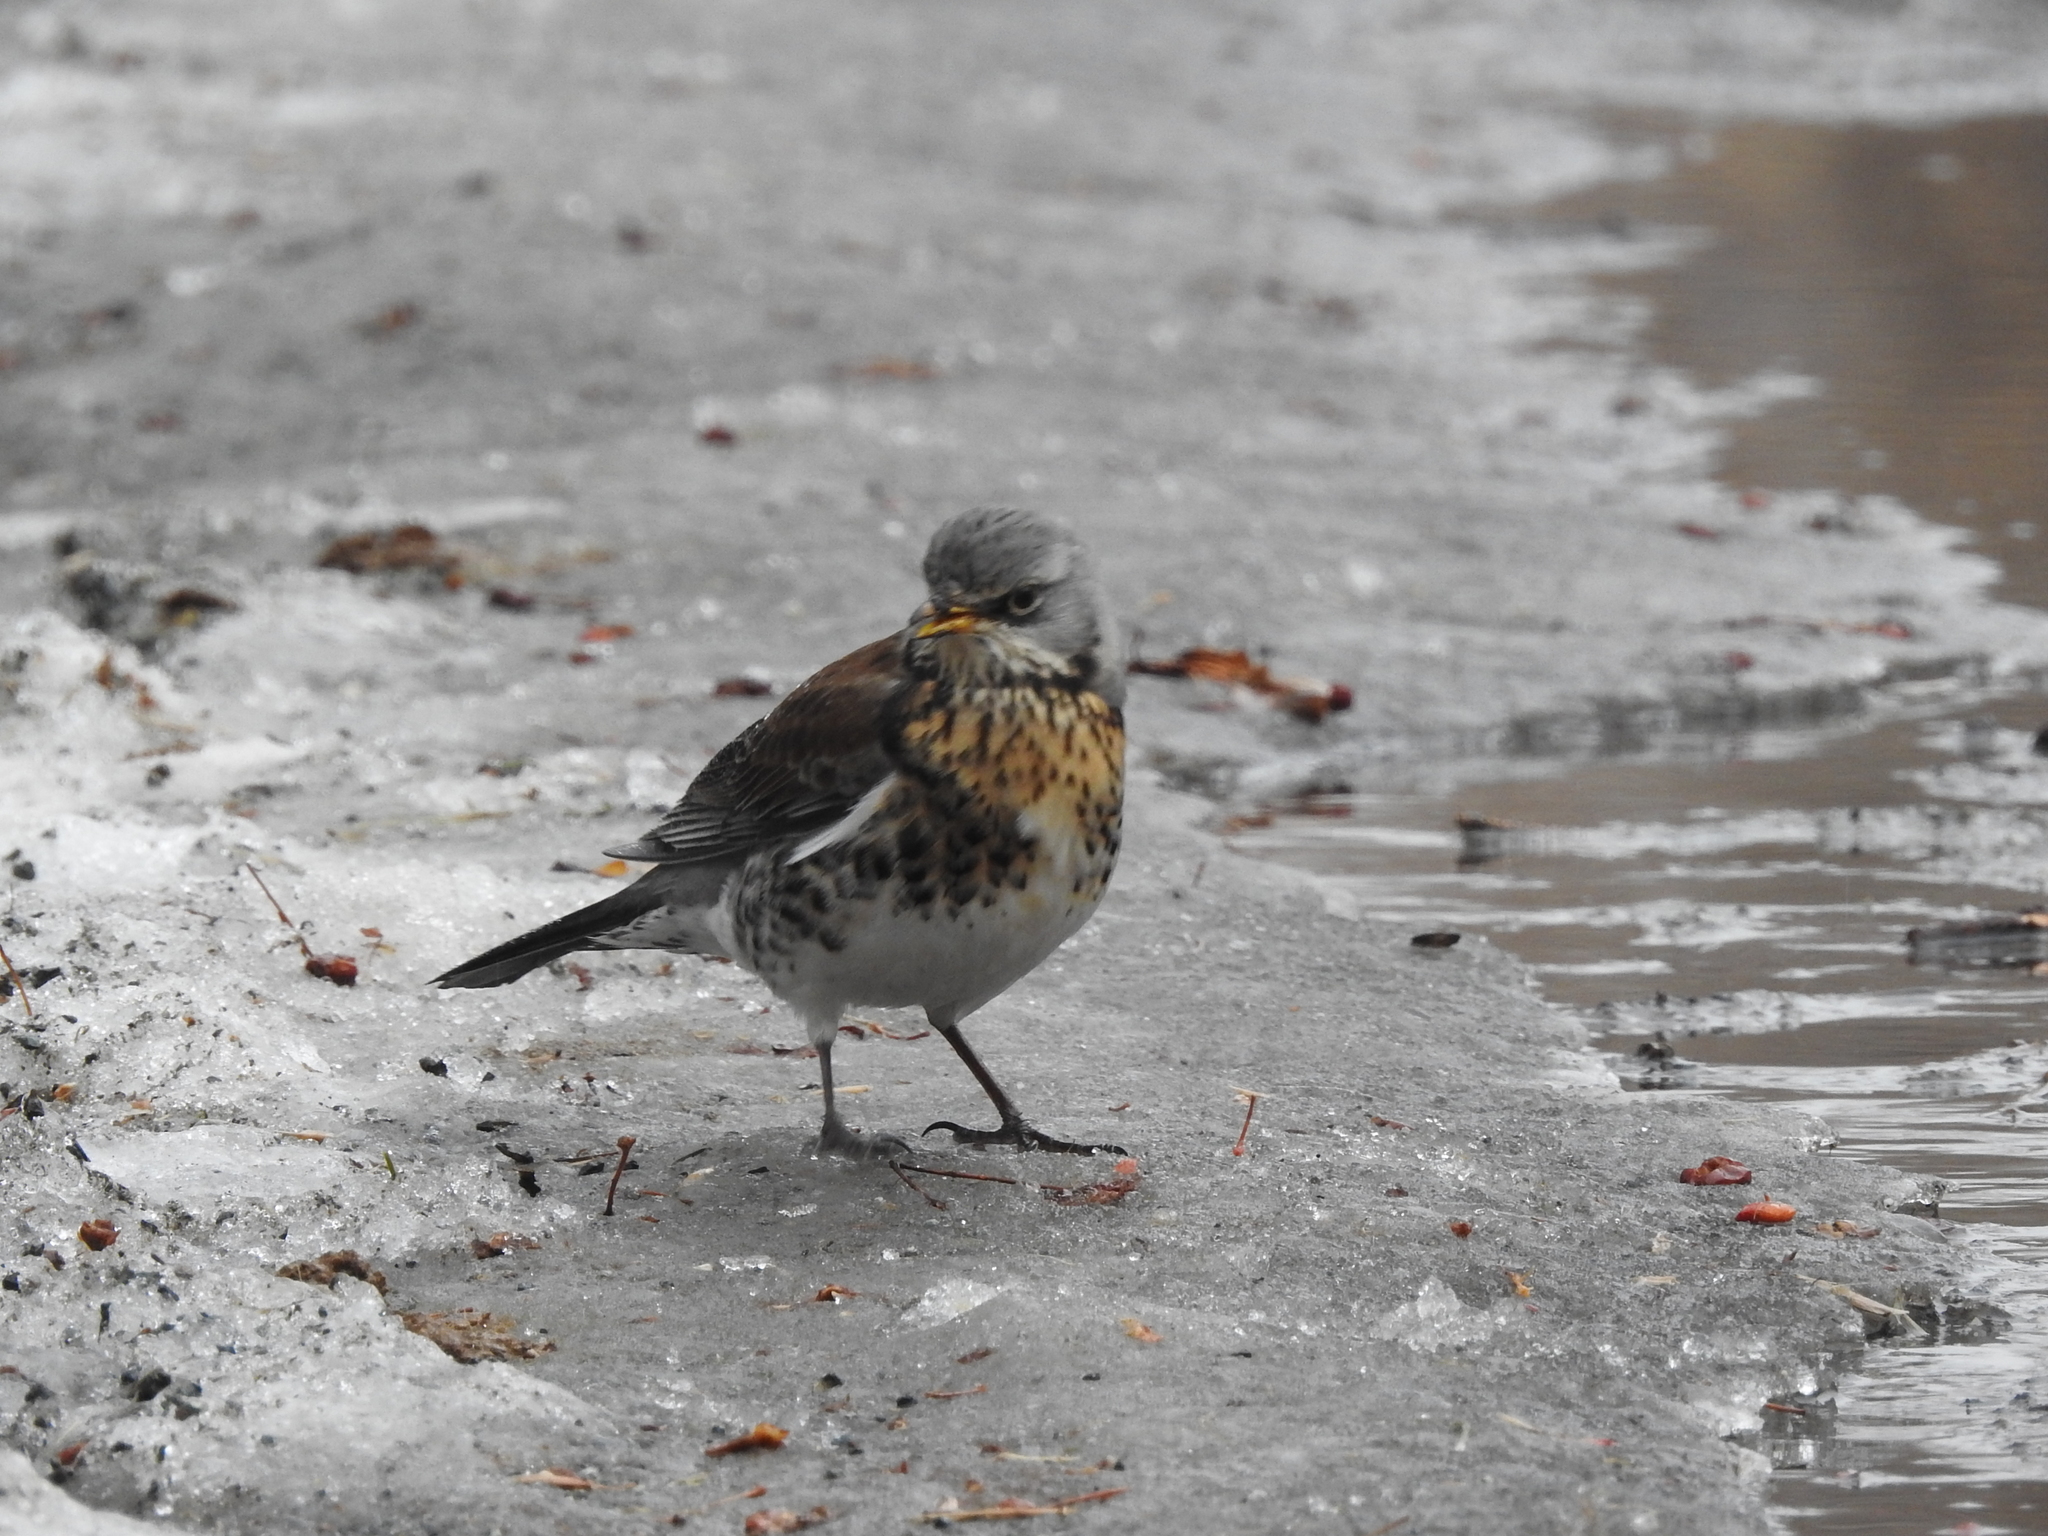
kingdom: Animalia
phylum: Chordata
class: Aves
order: Passeriformes
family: Turdidae
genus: Turdus
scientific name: Turdus pilaris
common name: Fieldfare
